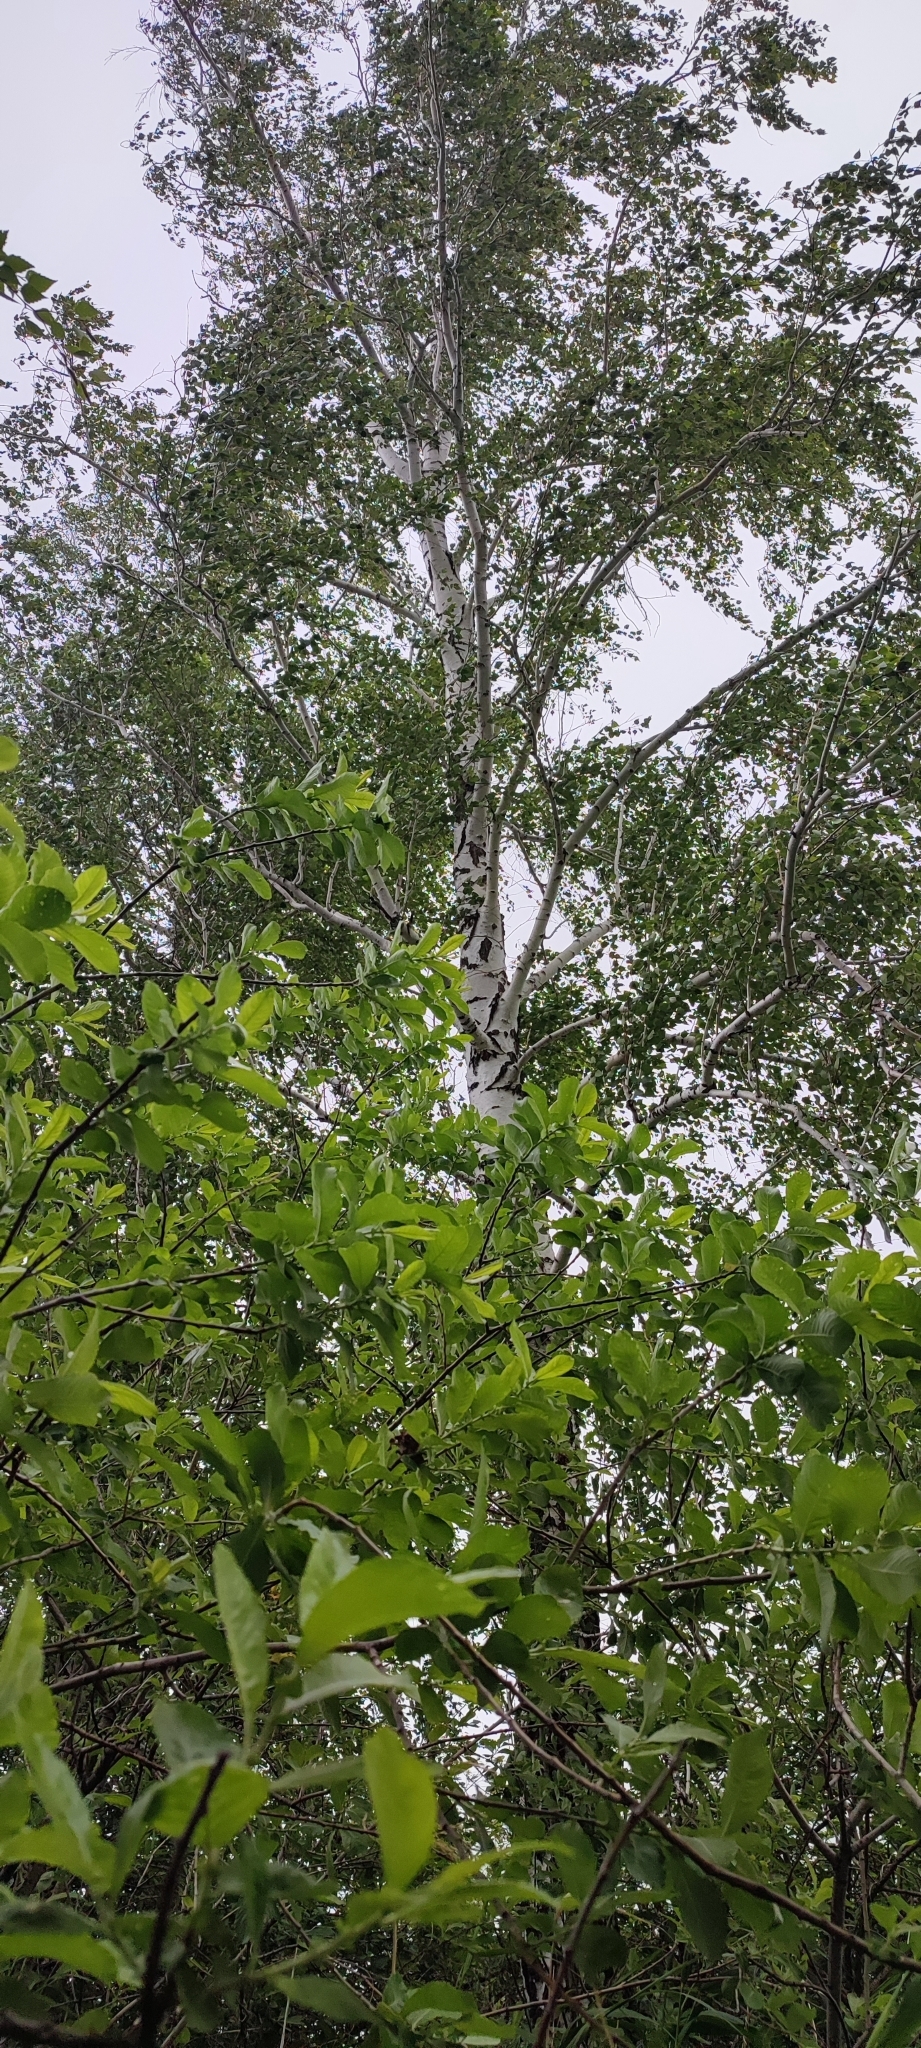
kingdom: Plantae
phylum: Tracheophyta
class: Magnoliopsida
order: Fagales
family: Betulaceae
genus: Betula
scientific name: Betula pendula
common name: Silver birch
